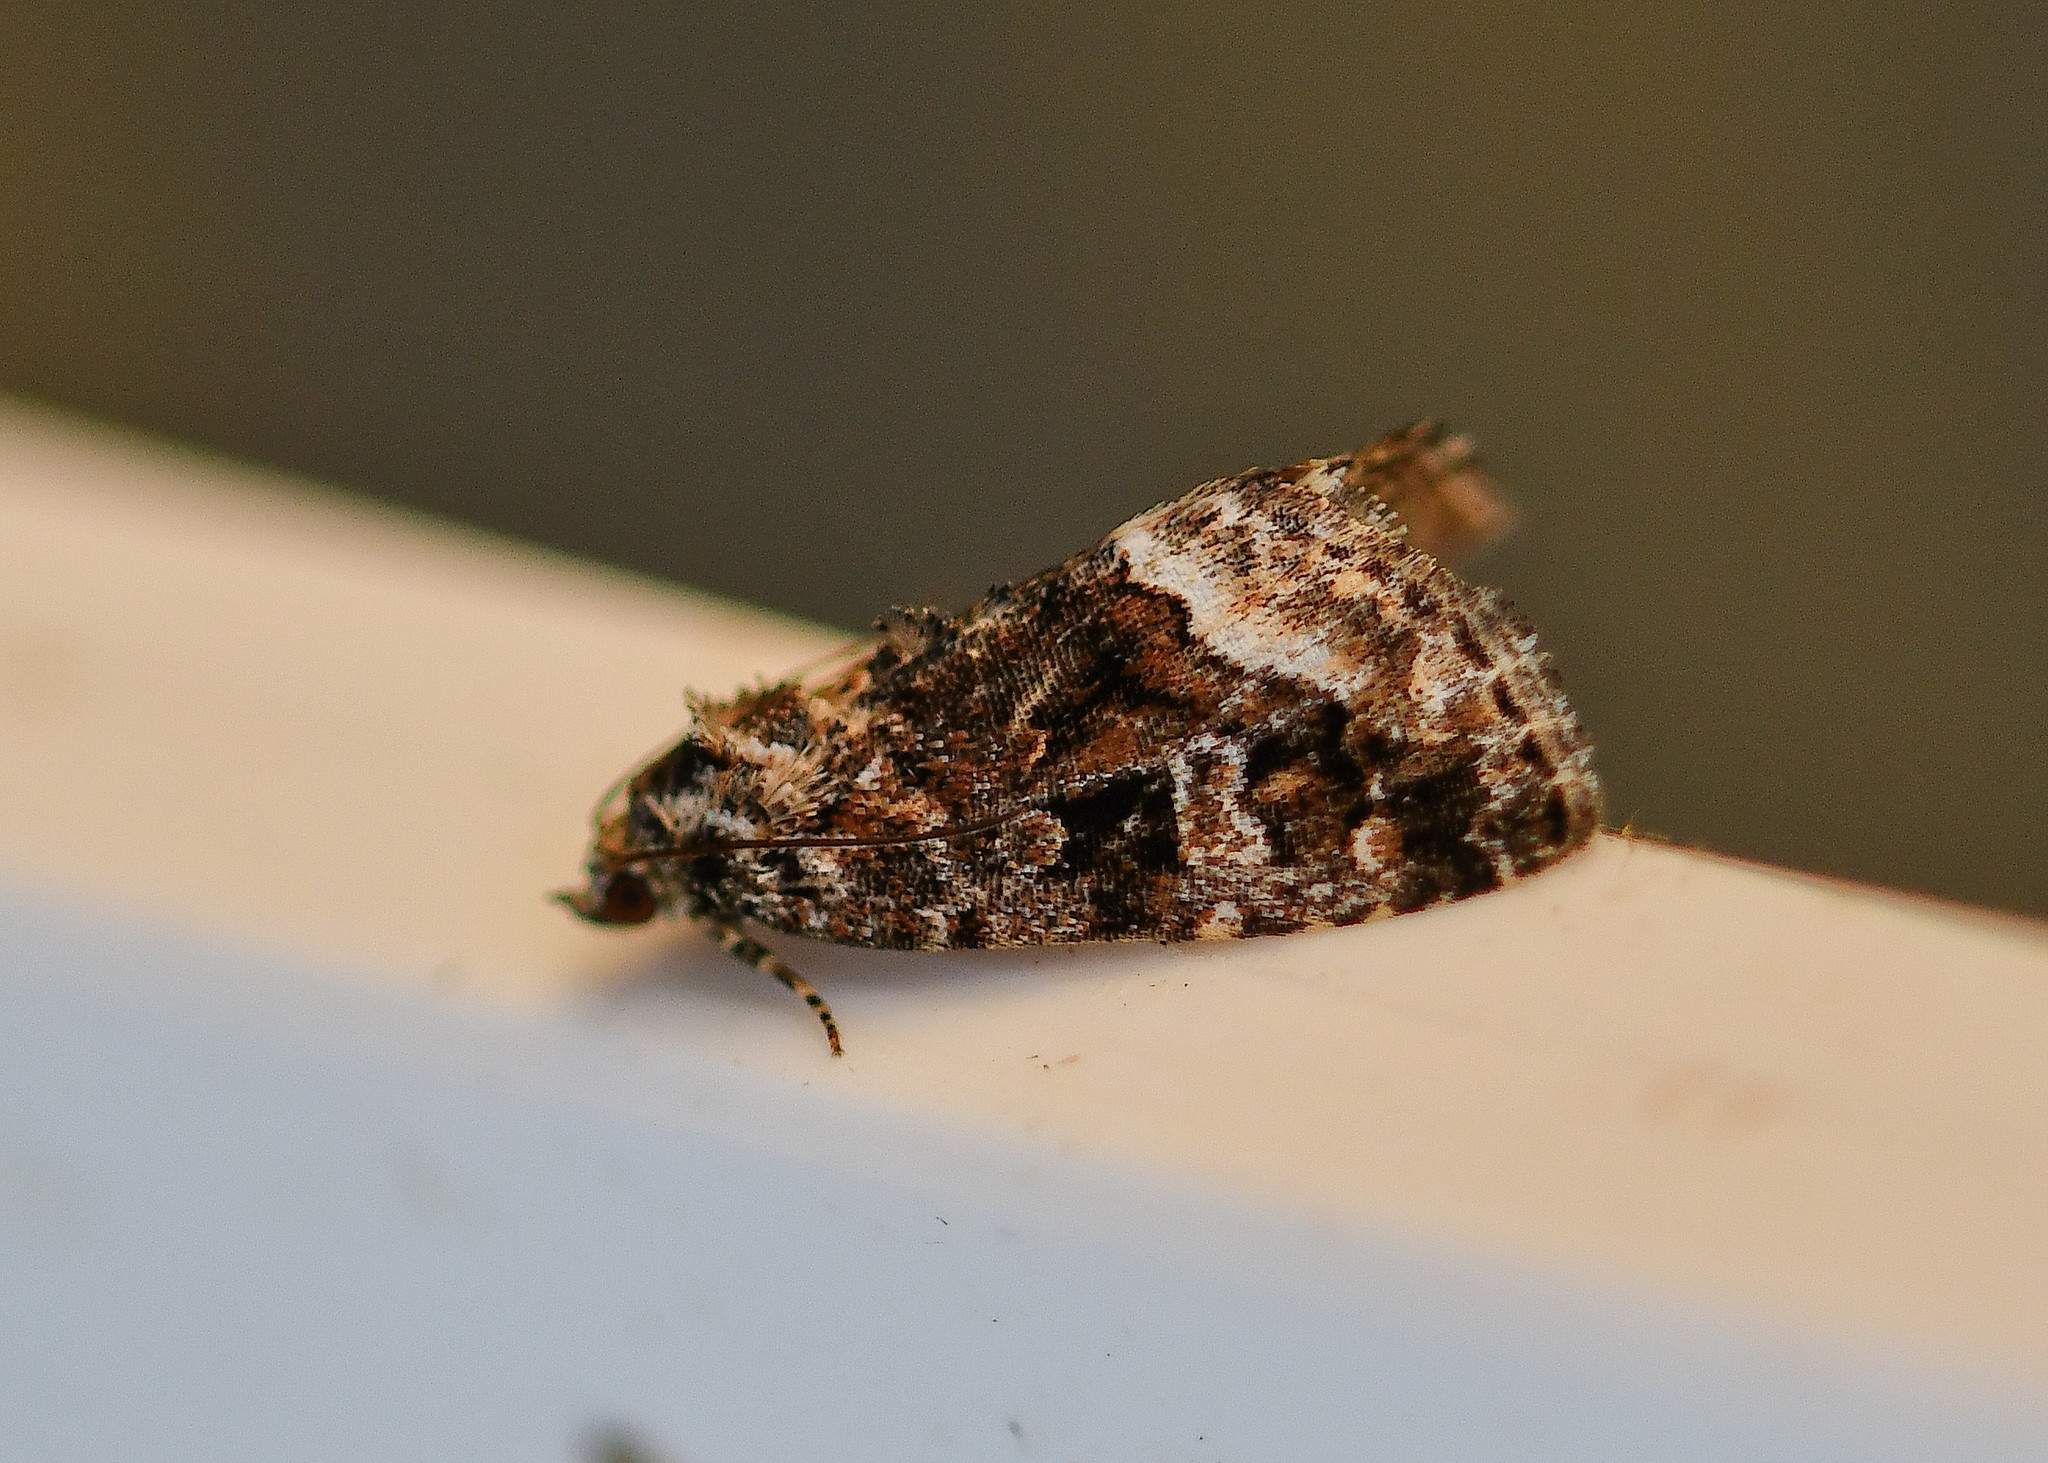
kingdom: Animalia
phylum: Arthropoda
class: Insecta
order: Lepidoptera
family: Noctuidae
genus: Deltote
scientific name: Deltote pygarga
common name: Marbled white spot
